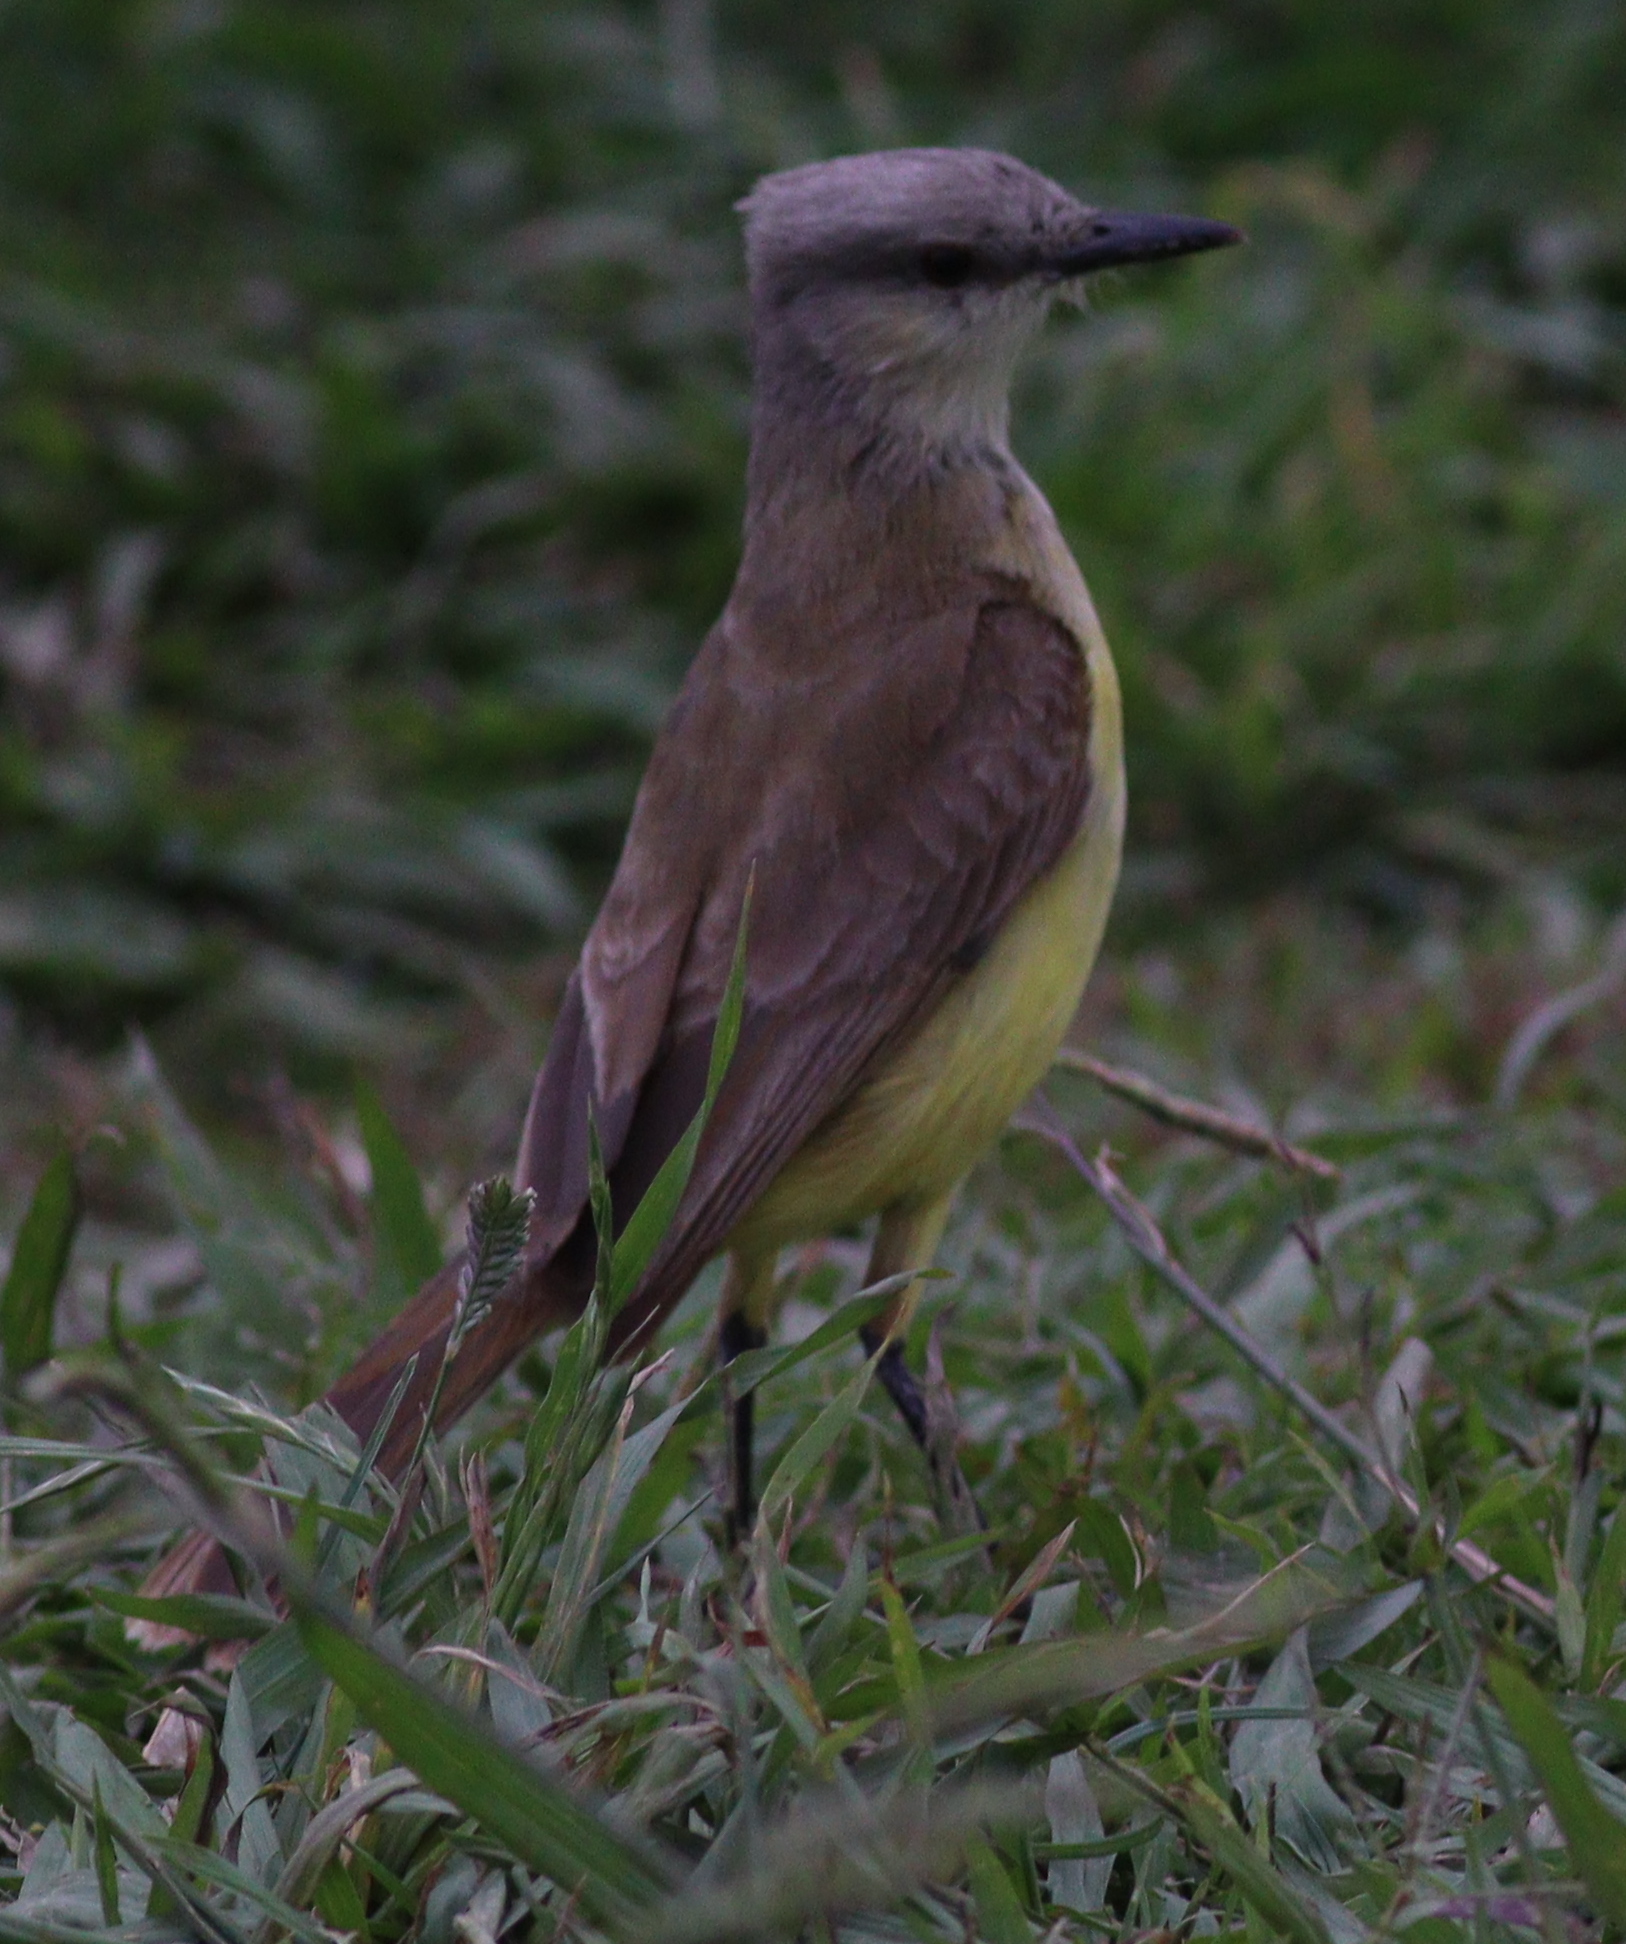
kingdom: Animalia
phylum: Chordata
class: Aves
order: Passeriformes
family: Tyrannidae
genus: Machetornis
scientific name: Machetornis rixosa
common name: Cattle tyrant
